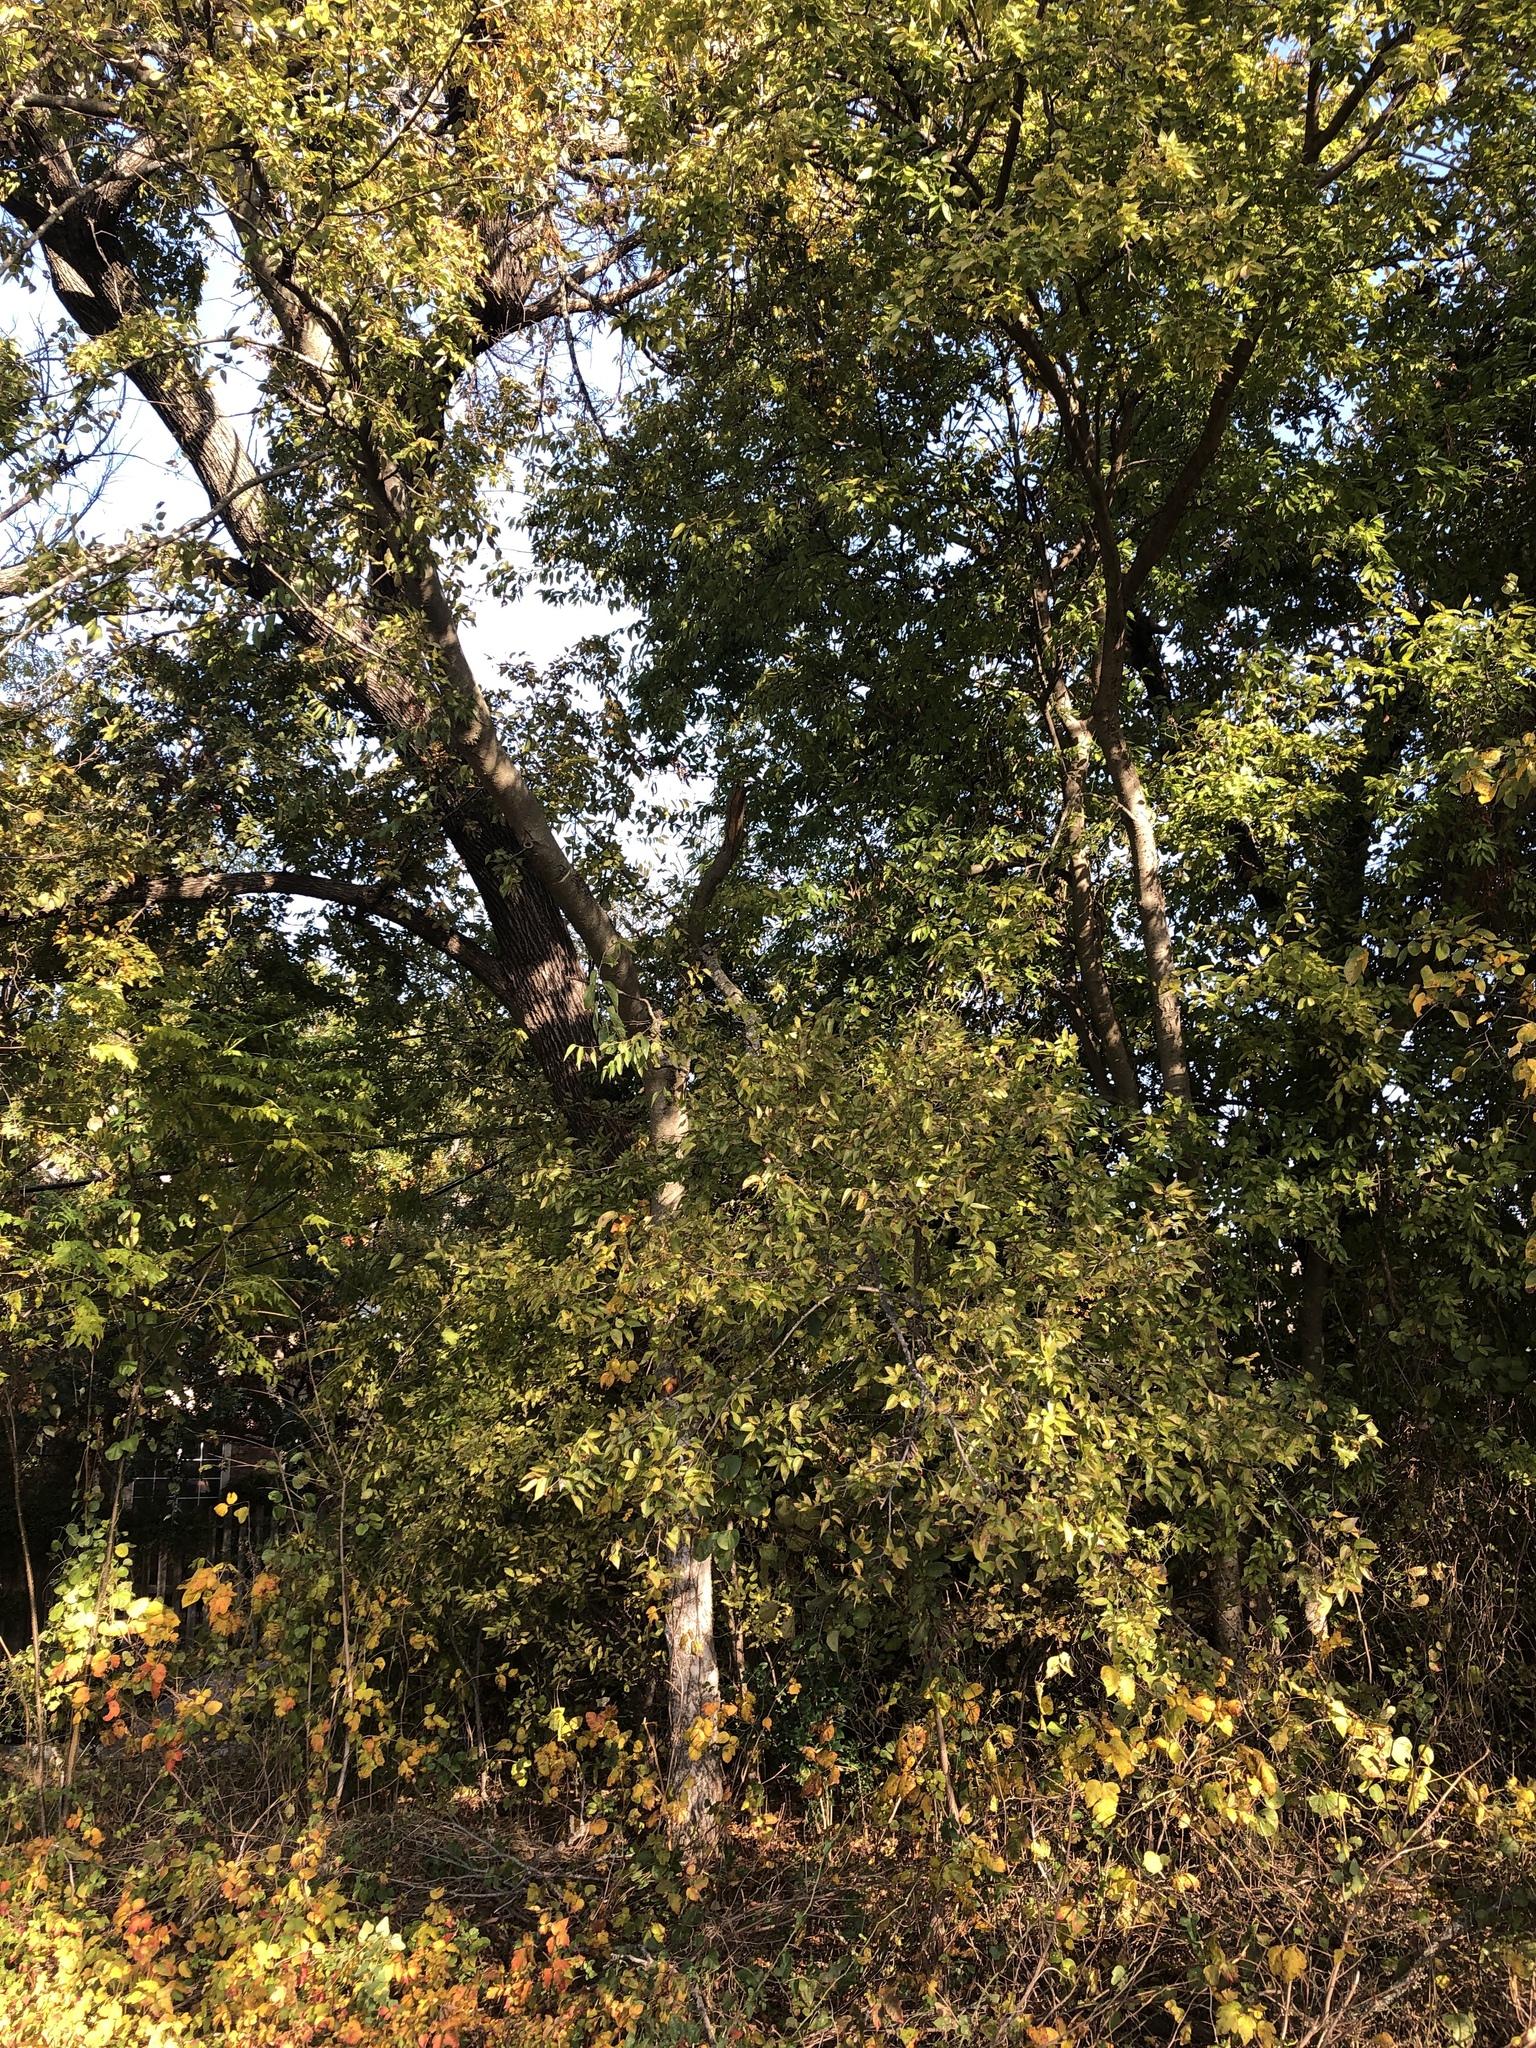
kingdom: Plantae
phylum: Tracheophyta
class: Magnoliopsida
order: Rosales
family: Cannabaceae
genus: Celtis
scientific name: Celtis laevigata
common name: Sugarberry
